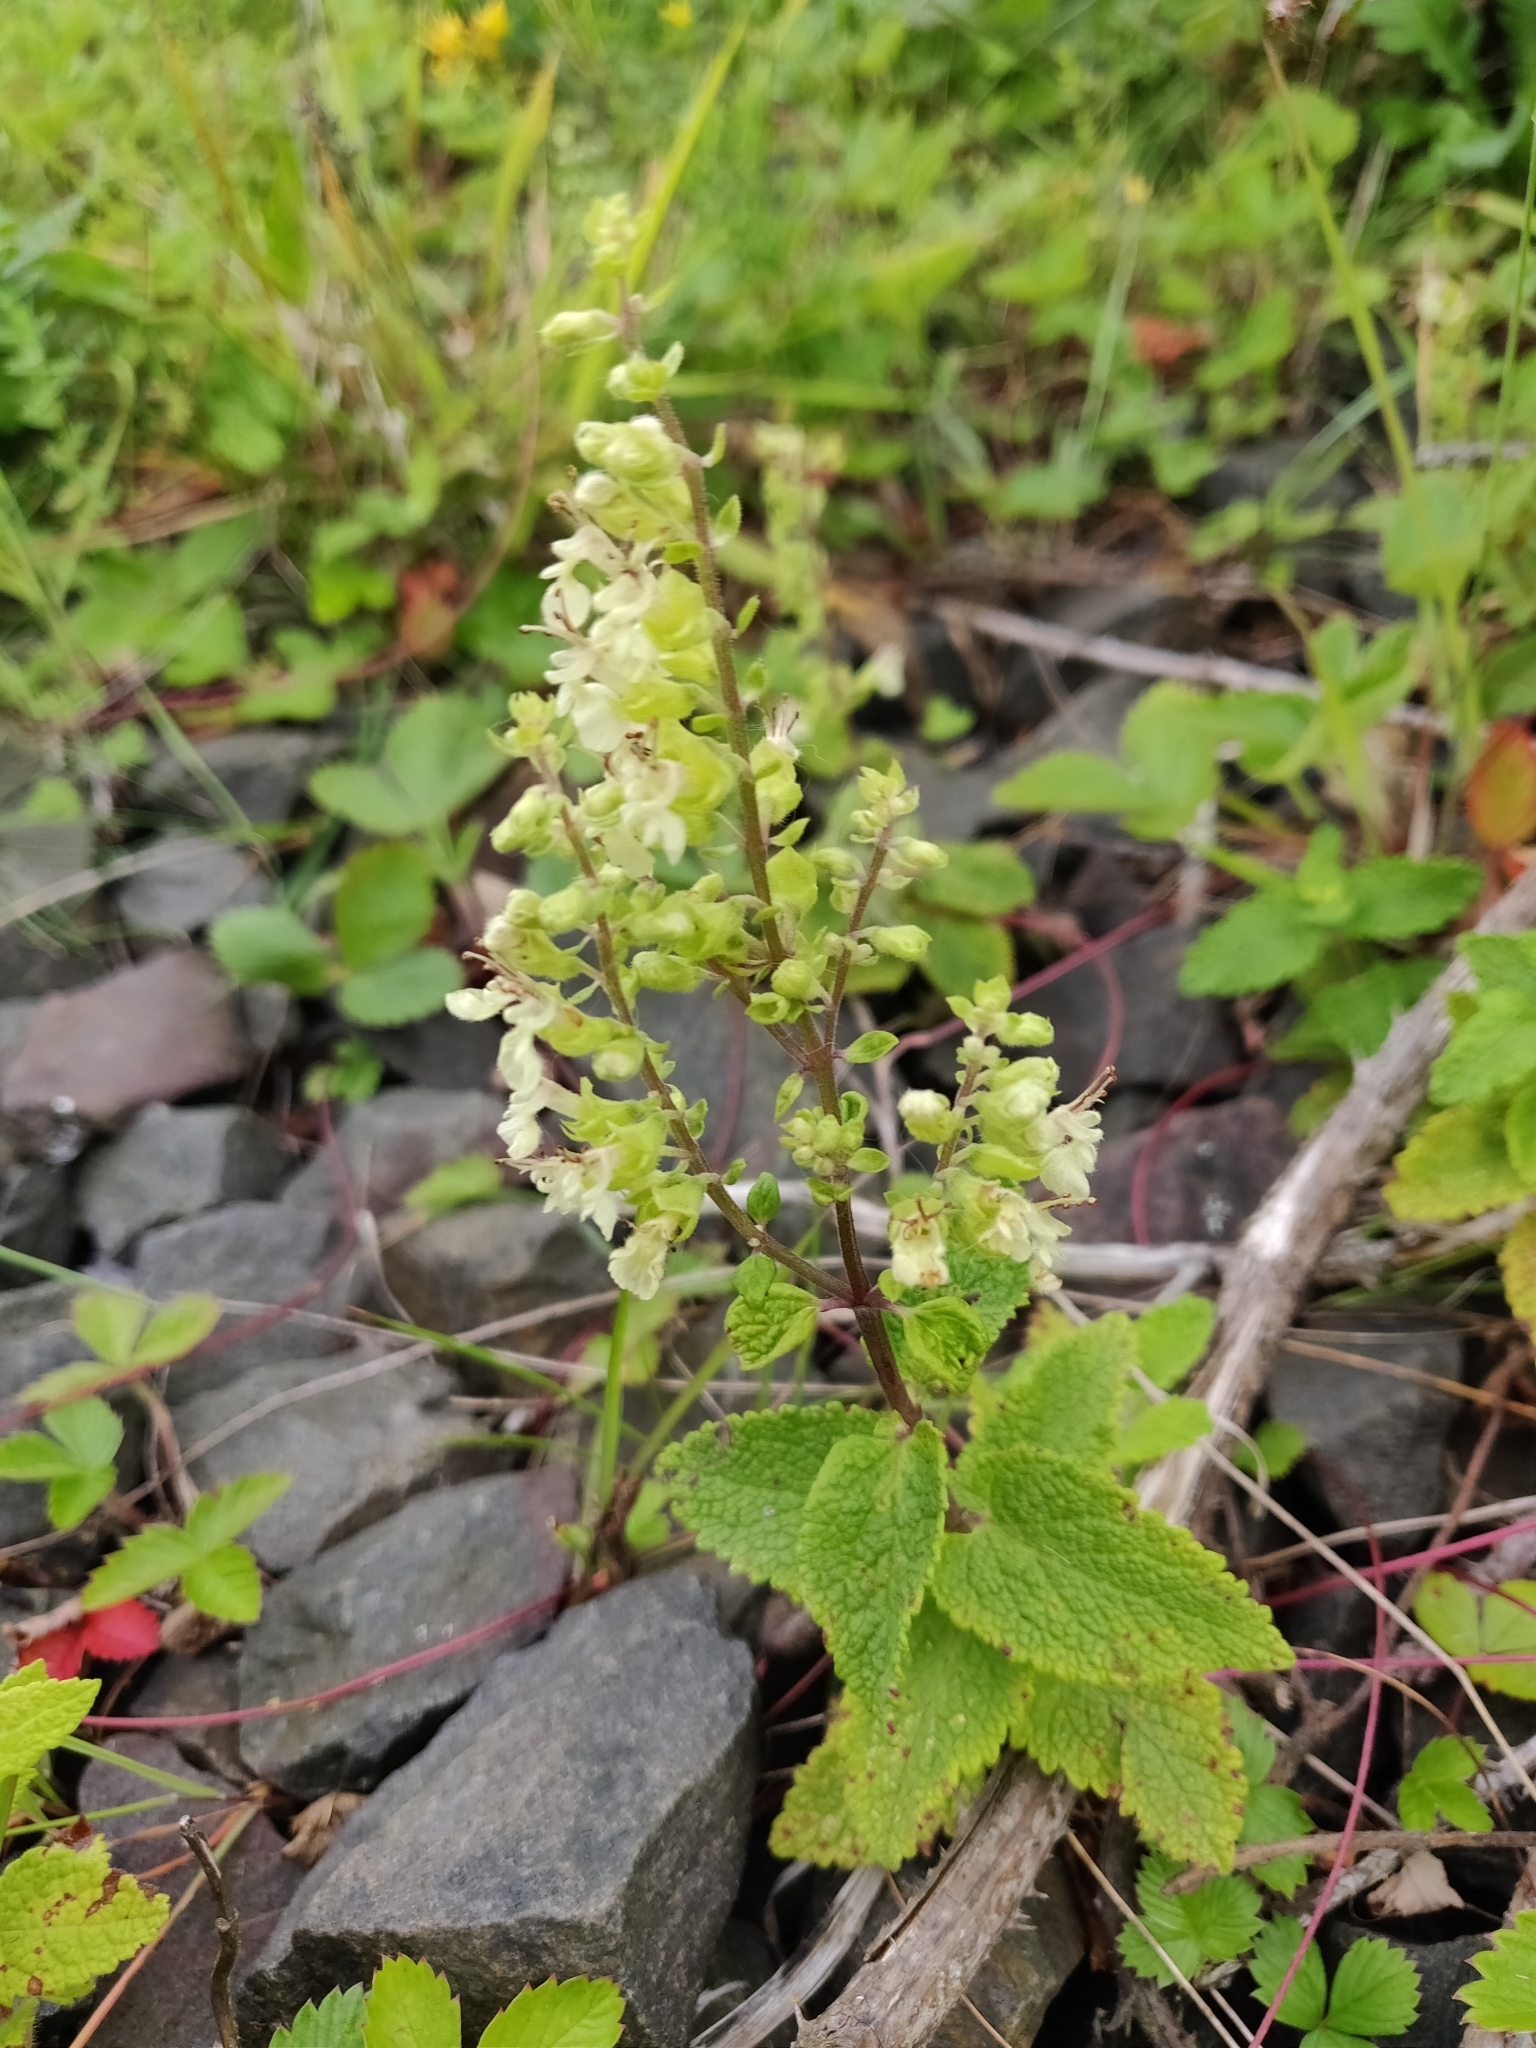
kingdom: Plantae
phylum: Tracheophyta
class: Magnoliopsida
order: Lamiales
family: Lamiaceae
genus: Teucrium
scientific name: Teucrium scorodonia
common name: Woodland germander
